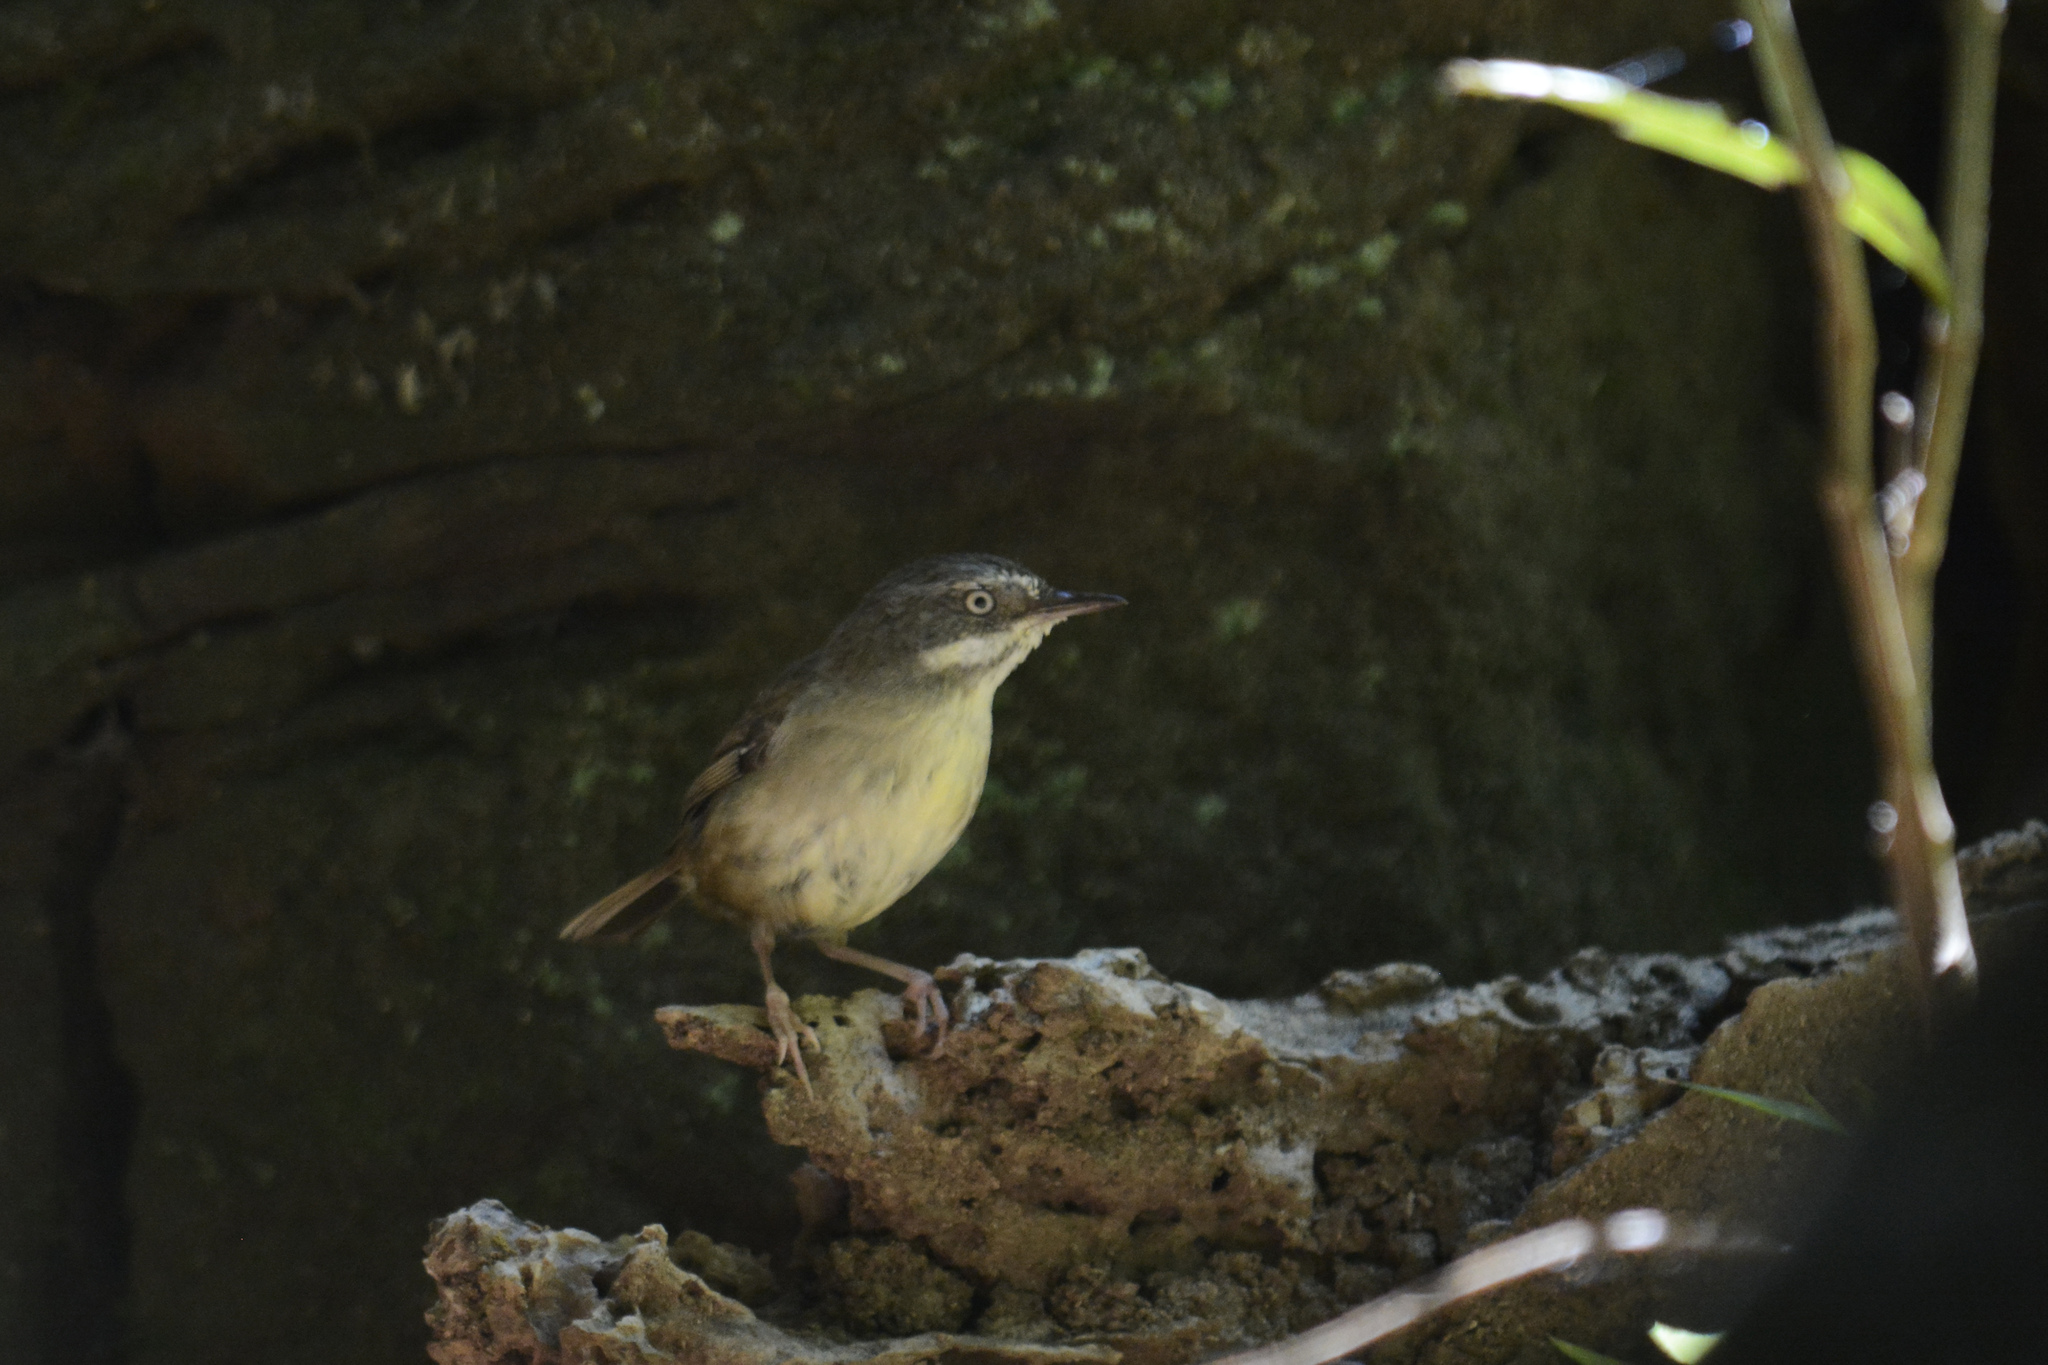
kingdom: Animalia
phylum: Chordata
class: Aves
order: Passeriformes
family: Acanthizidae
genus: Sericornis
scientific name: Sericornis frontalis
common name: White-browed scrubwren
